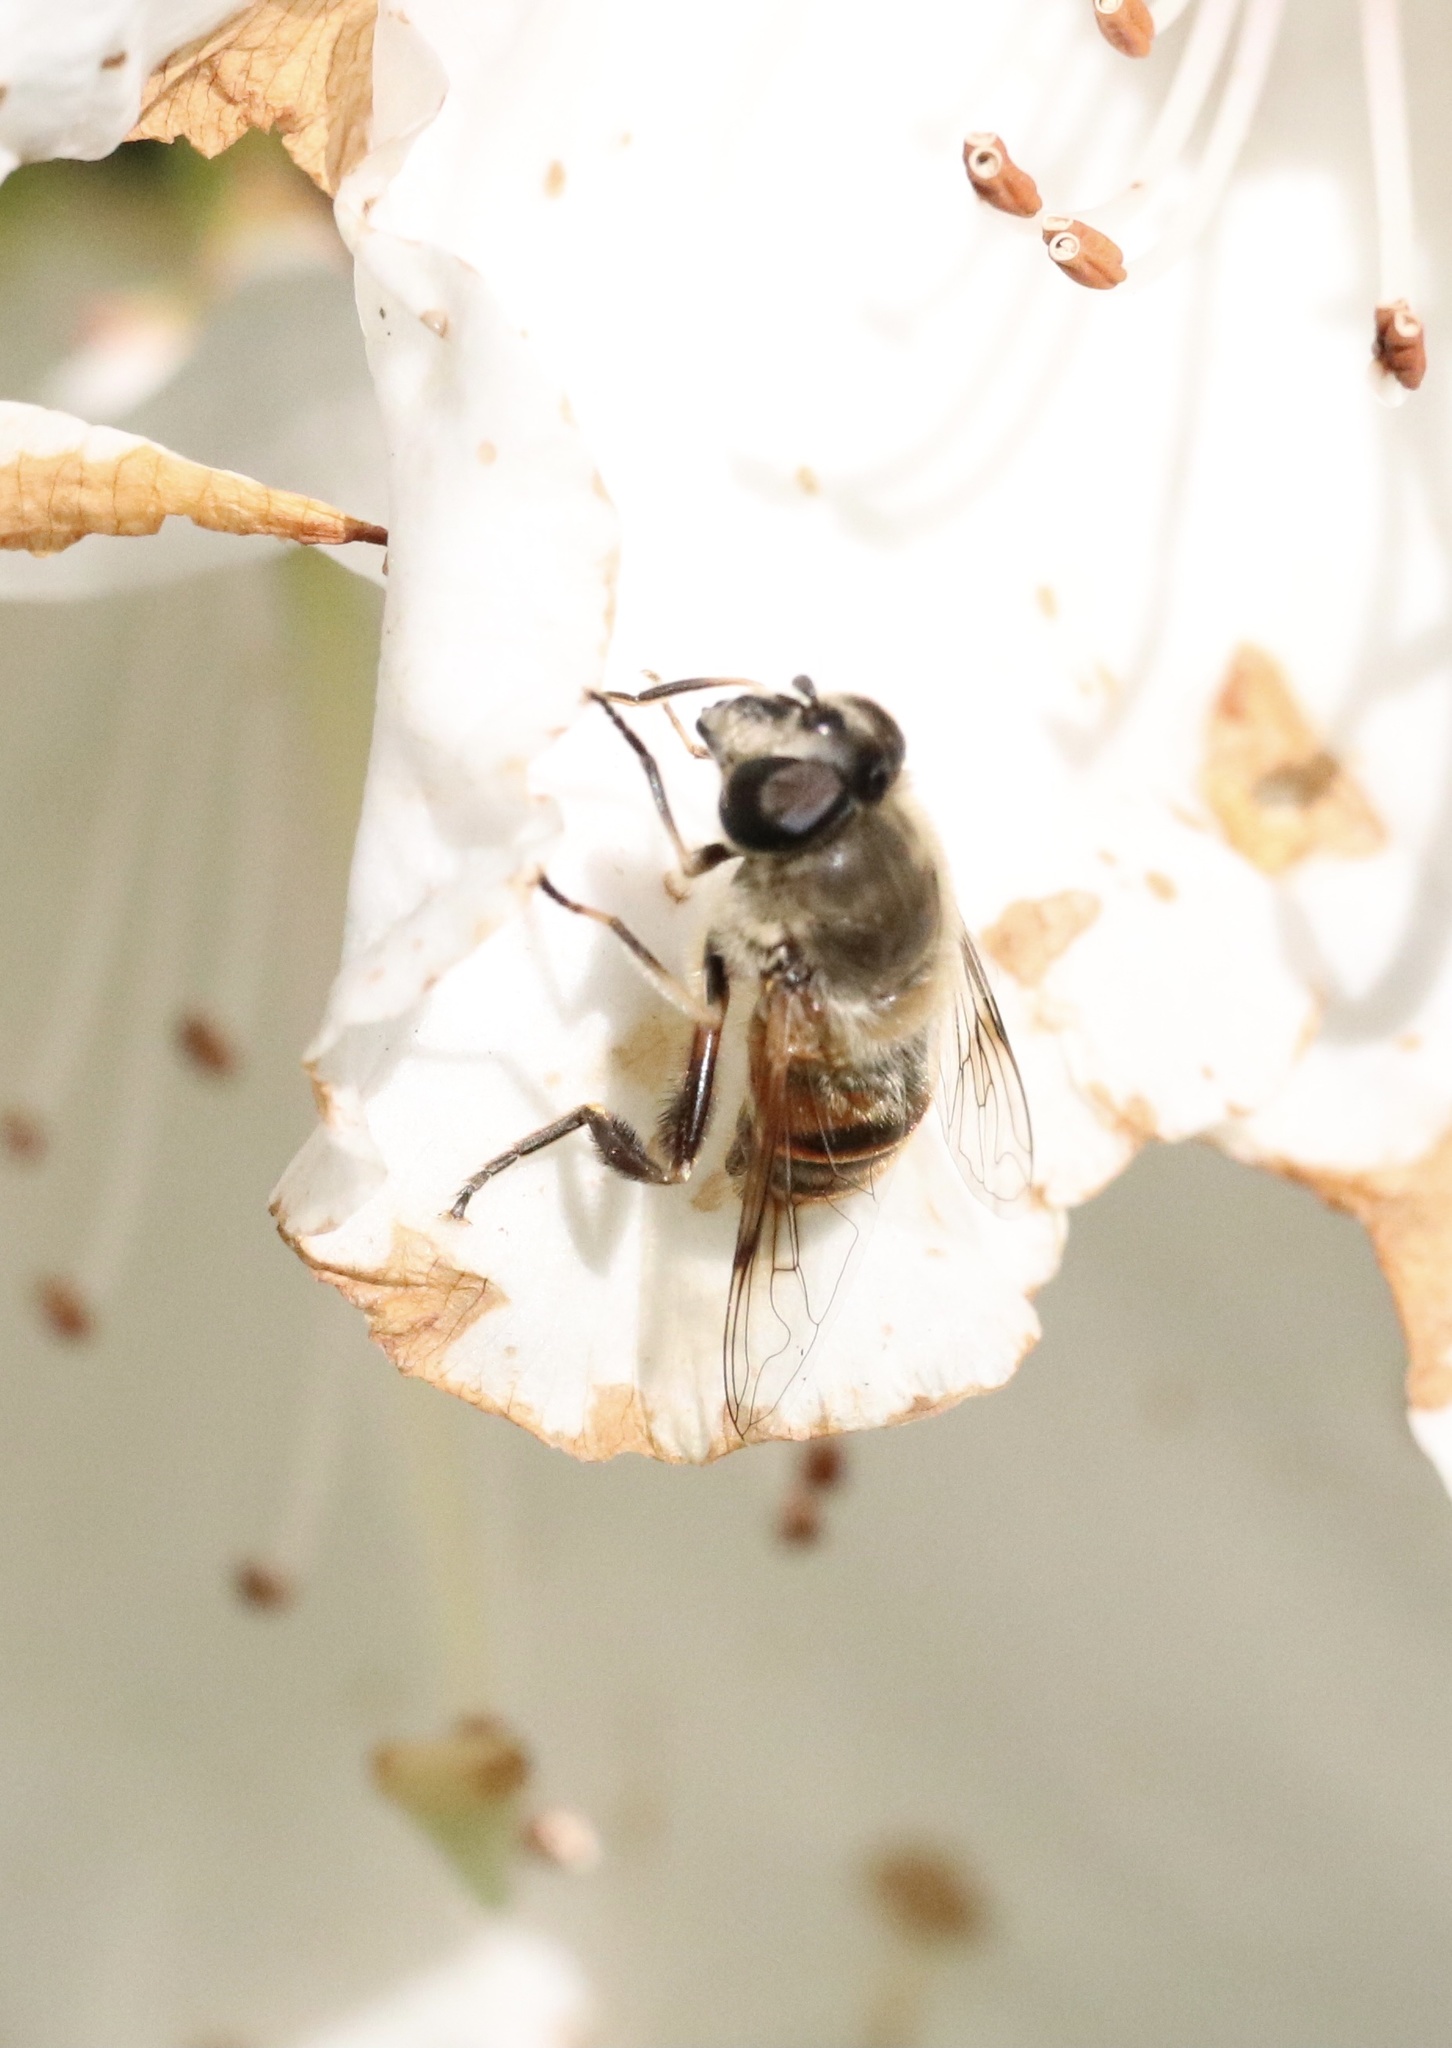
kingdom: Animalia
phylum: Arthropoda
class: Insecta
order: Diptera
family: Syrphidae
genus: Eristalis
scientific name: Eristalis tenax
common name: Drone fly
